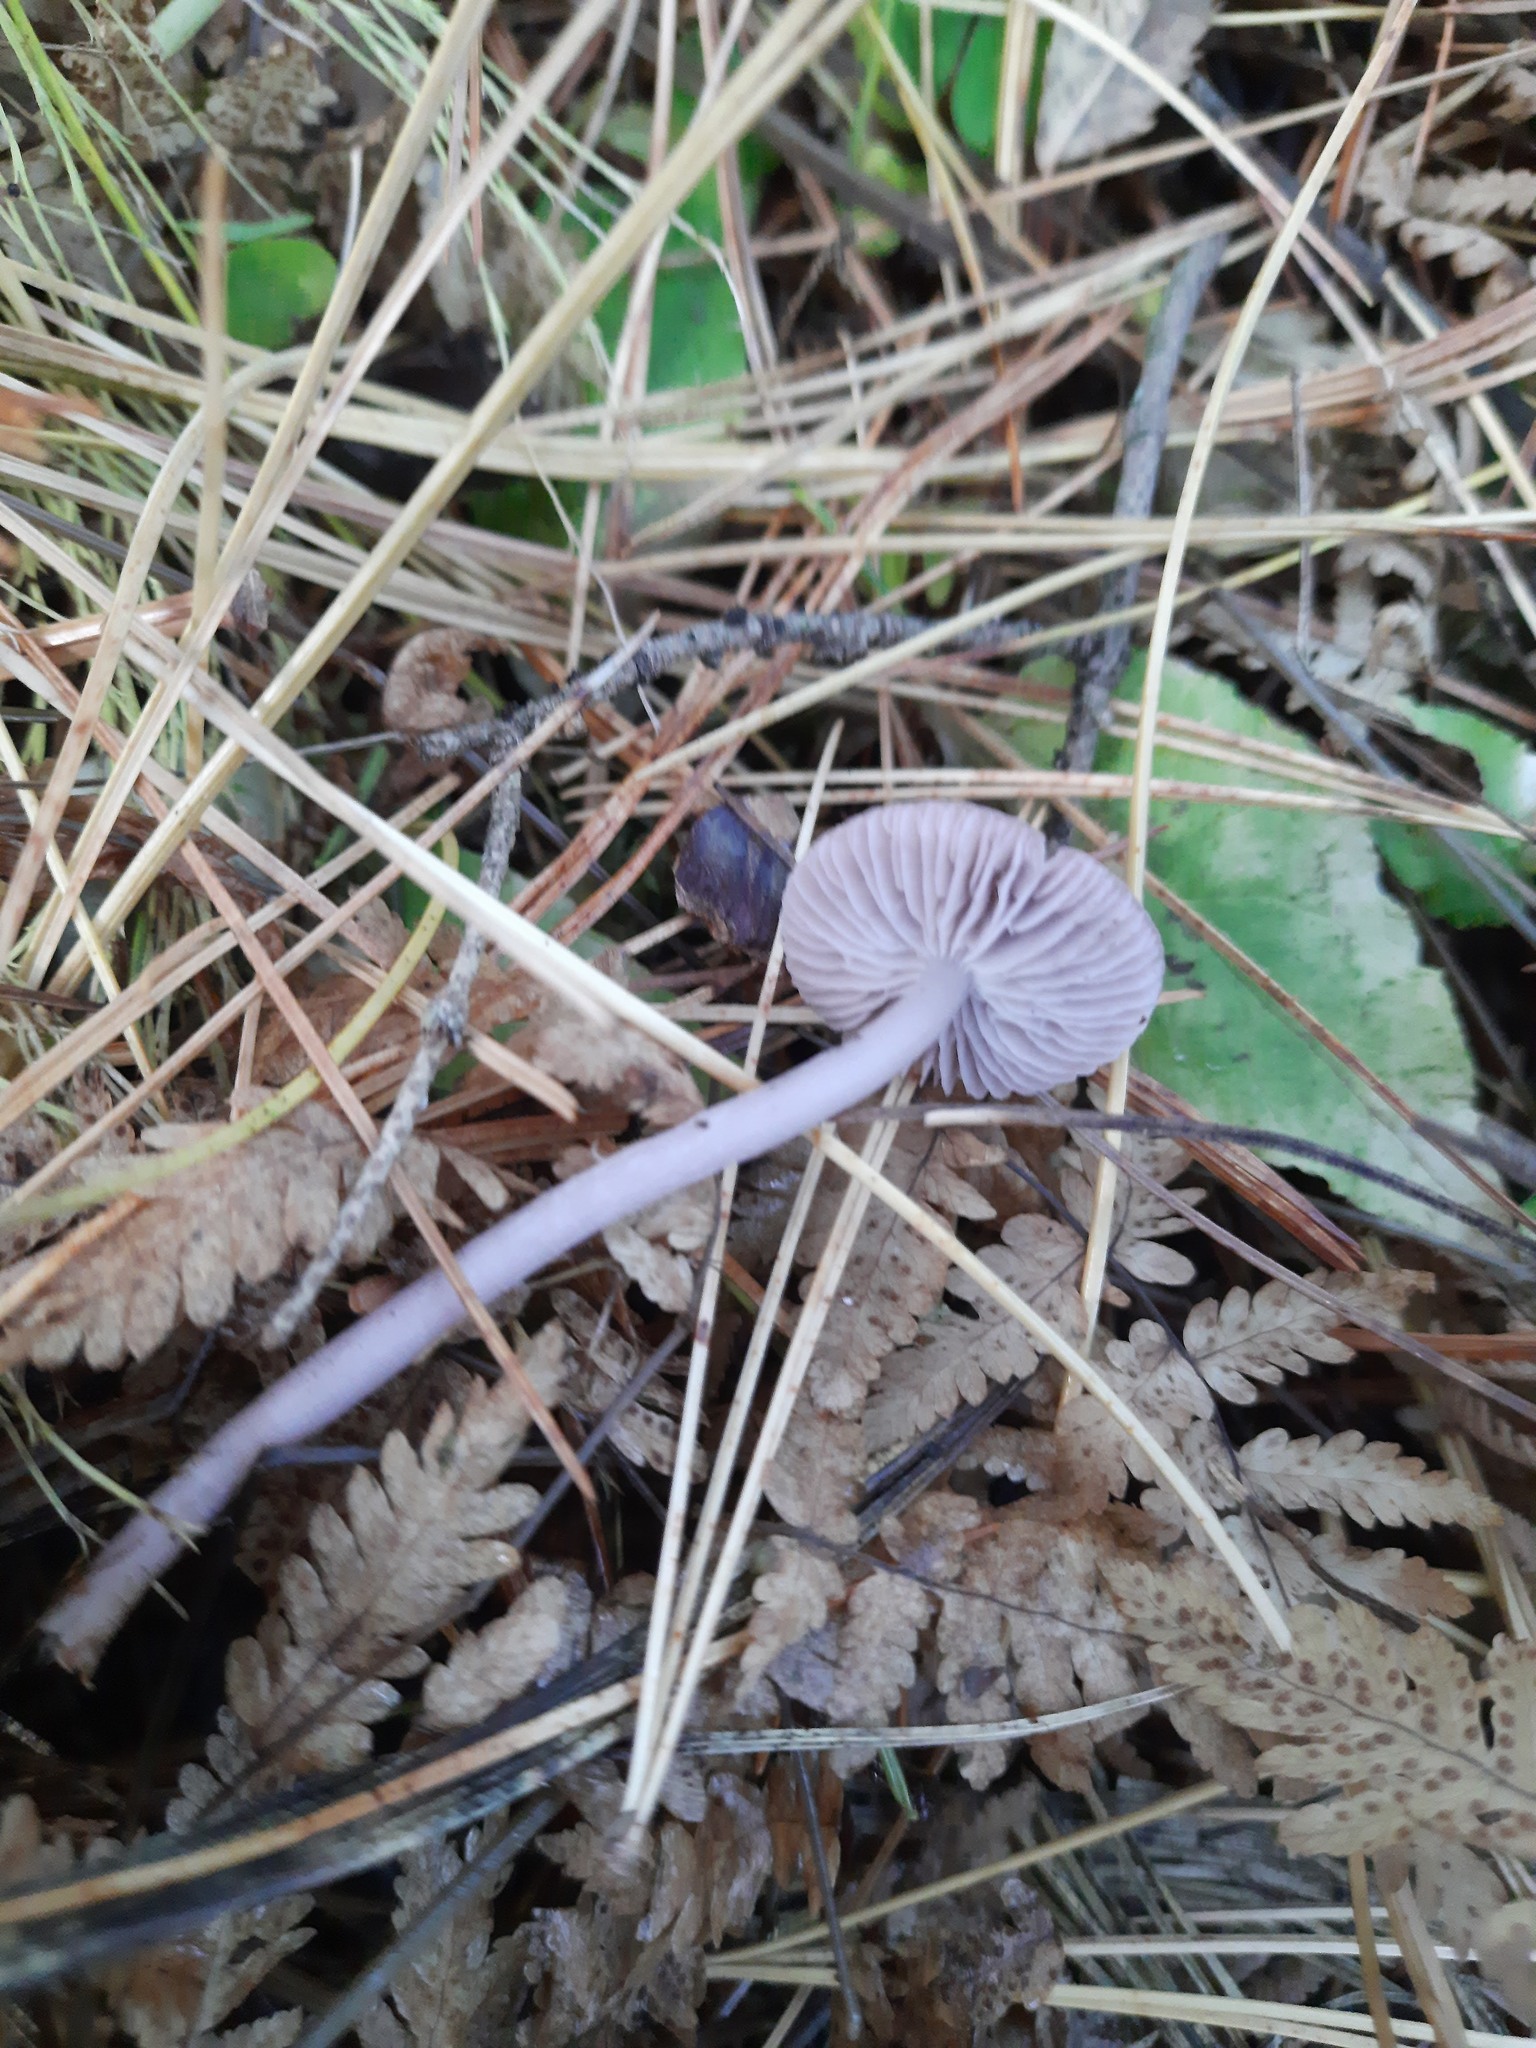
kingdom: Fungi
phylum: Basidiomycota
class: Agaricomycetes
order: Agaricales
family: Mycenaceae
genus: Mycena
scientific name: Mycena pura
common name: Lilac bonnet
